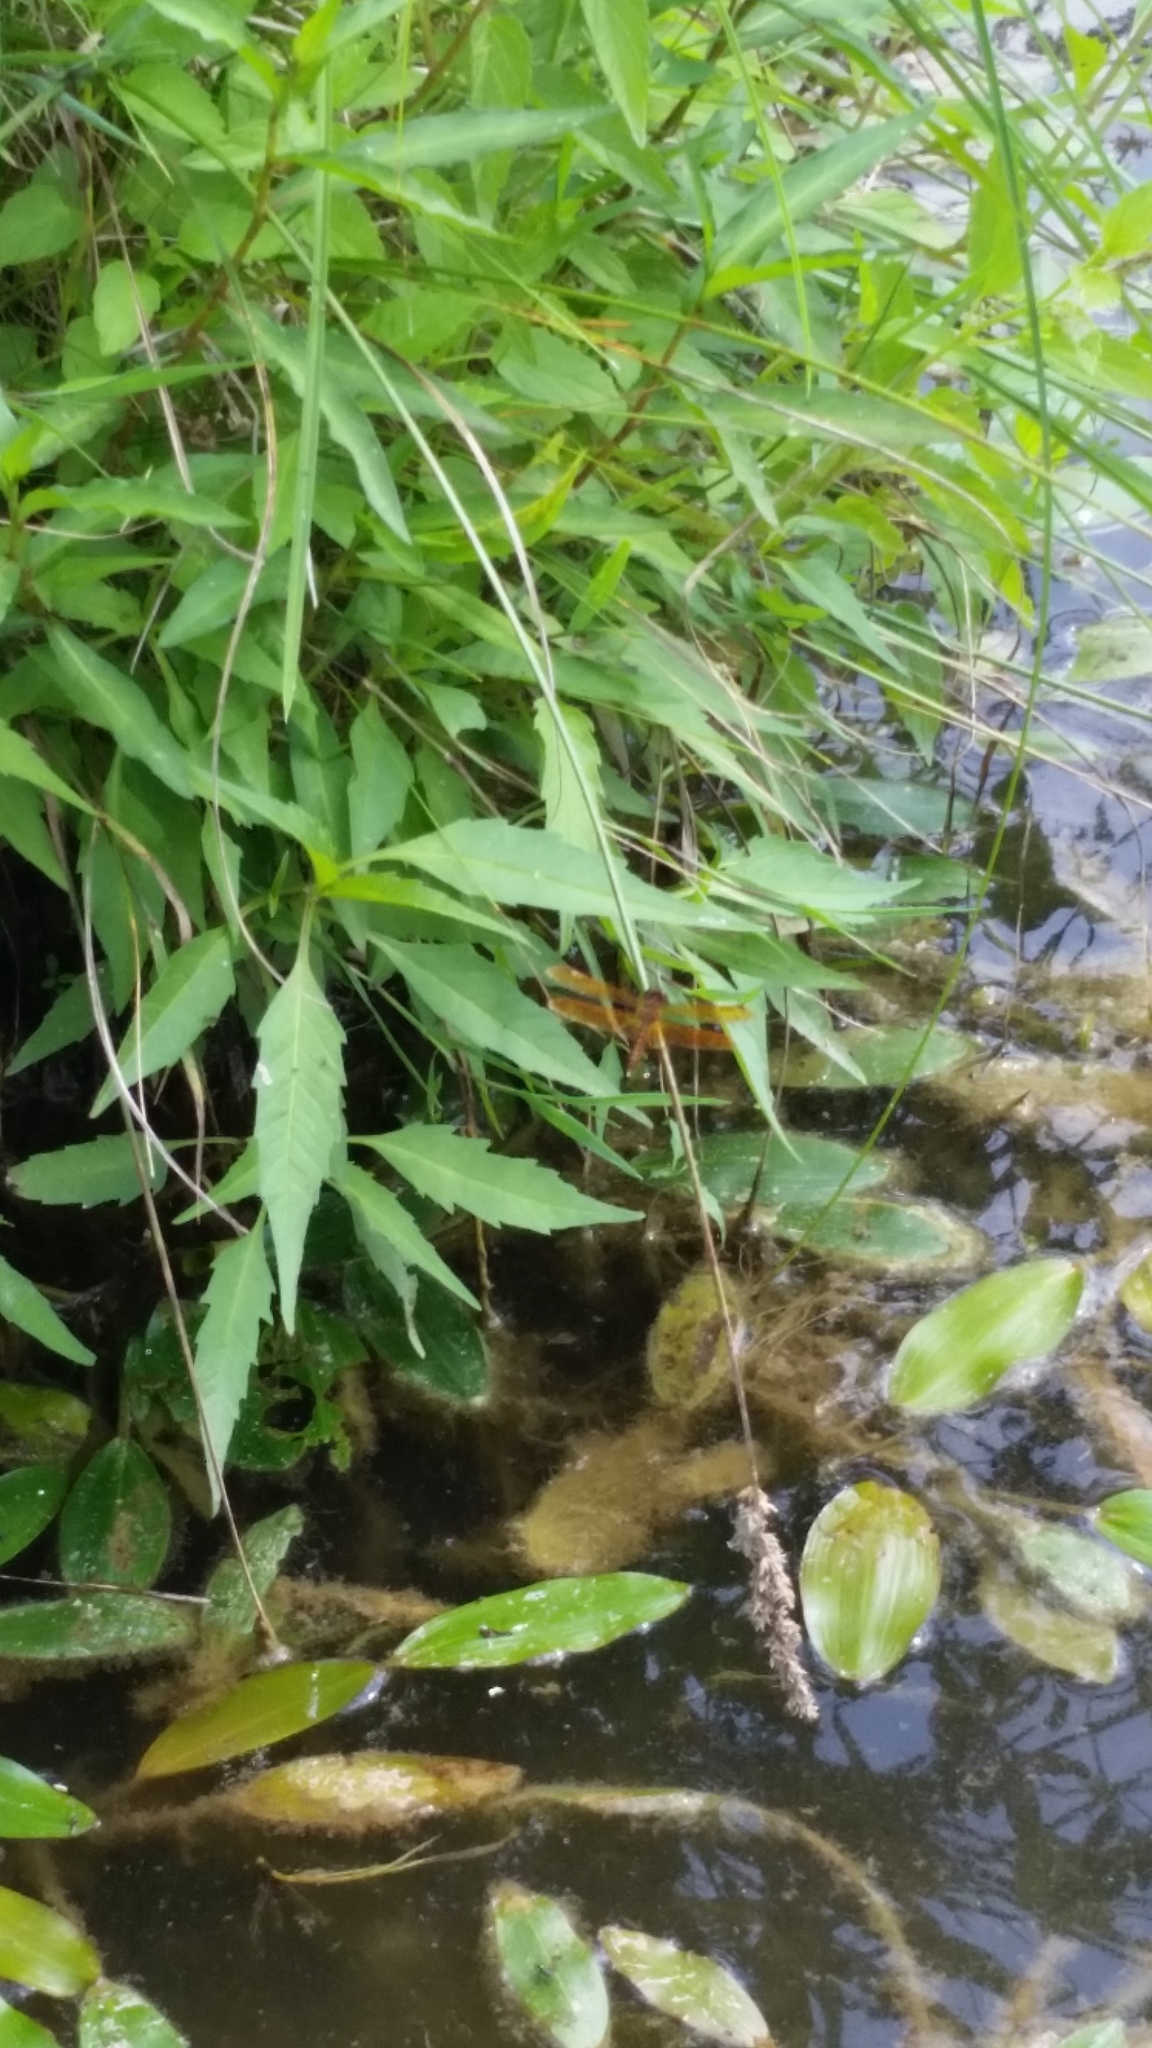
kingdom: Animalia
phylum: Arthropoda
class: Insecta
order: Odonata
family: Libellulidae
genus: Perithemis
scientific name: Perithemis tenera
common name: Eastern amberwing
